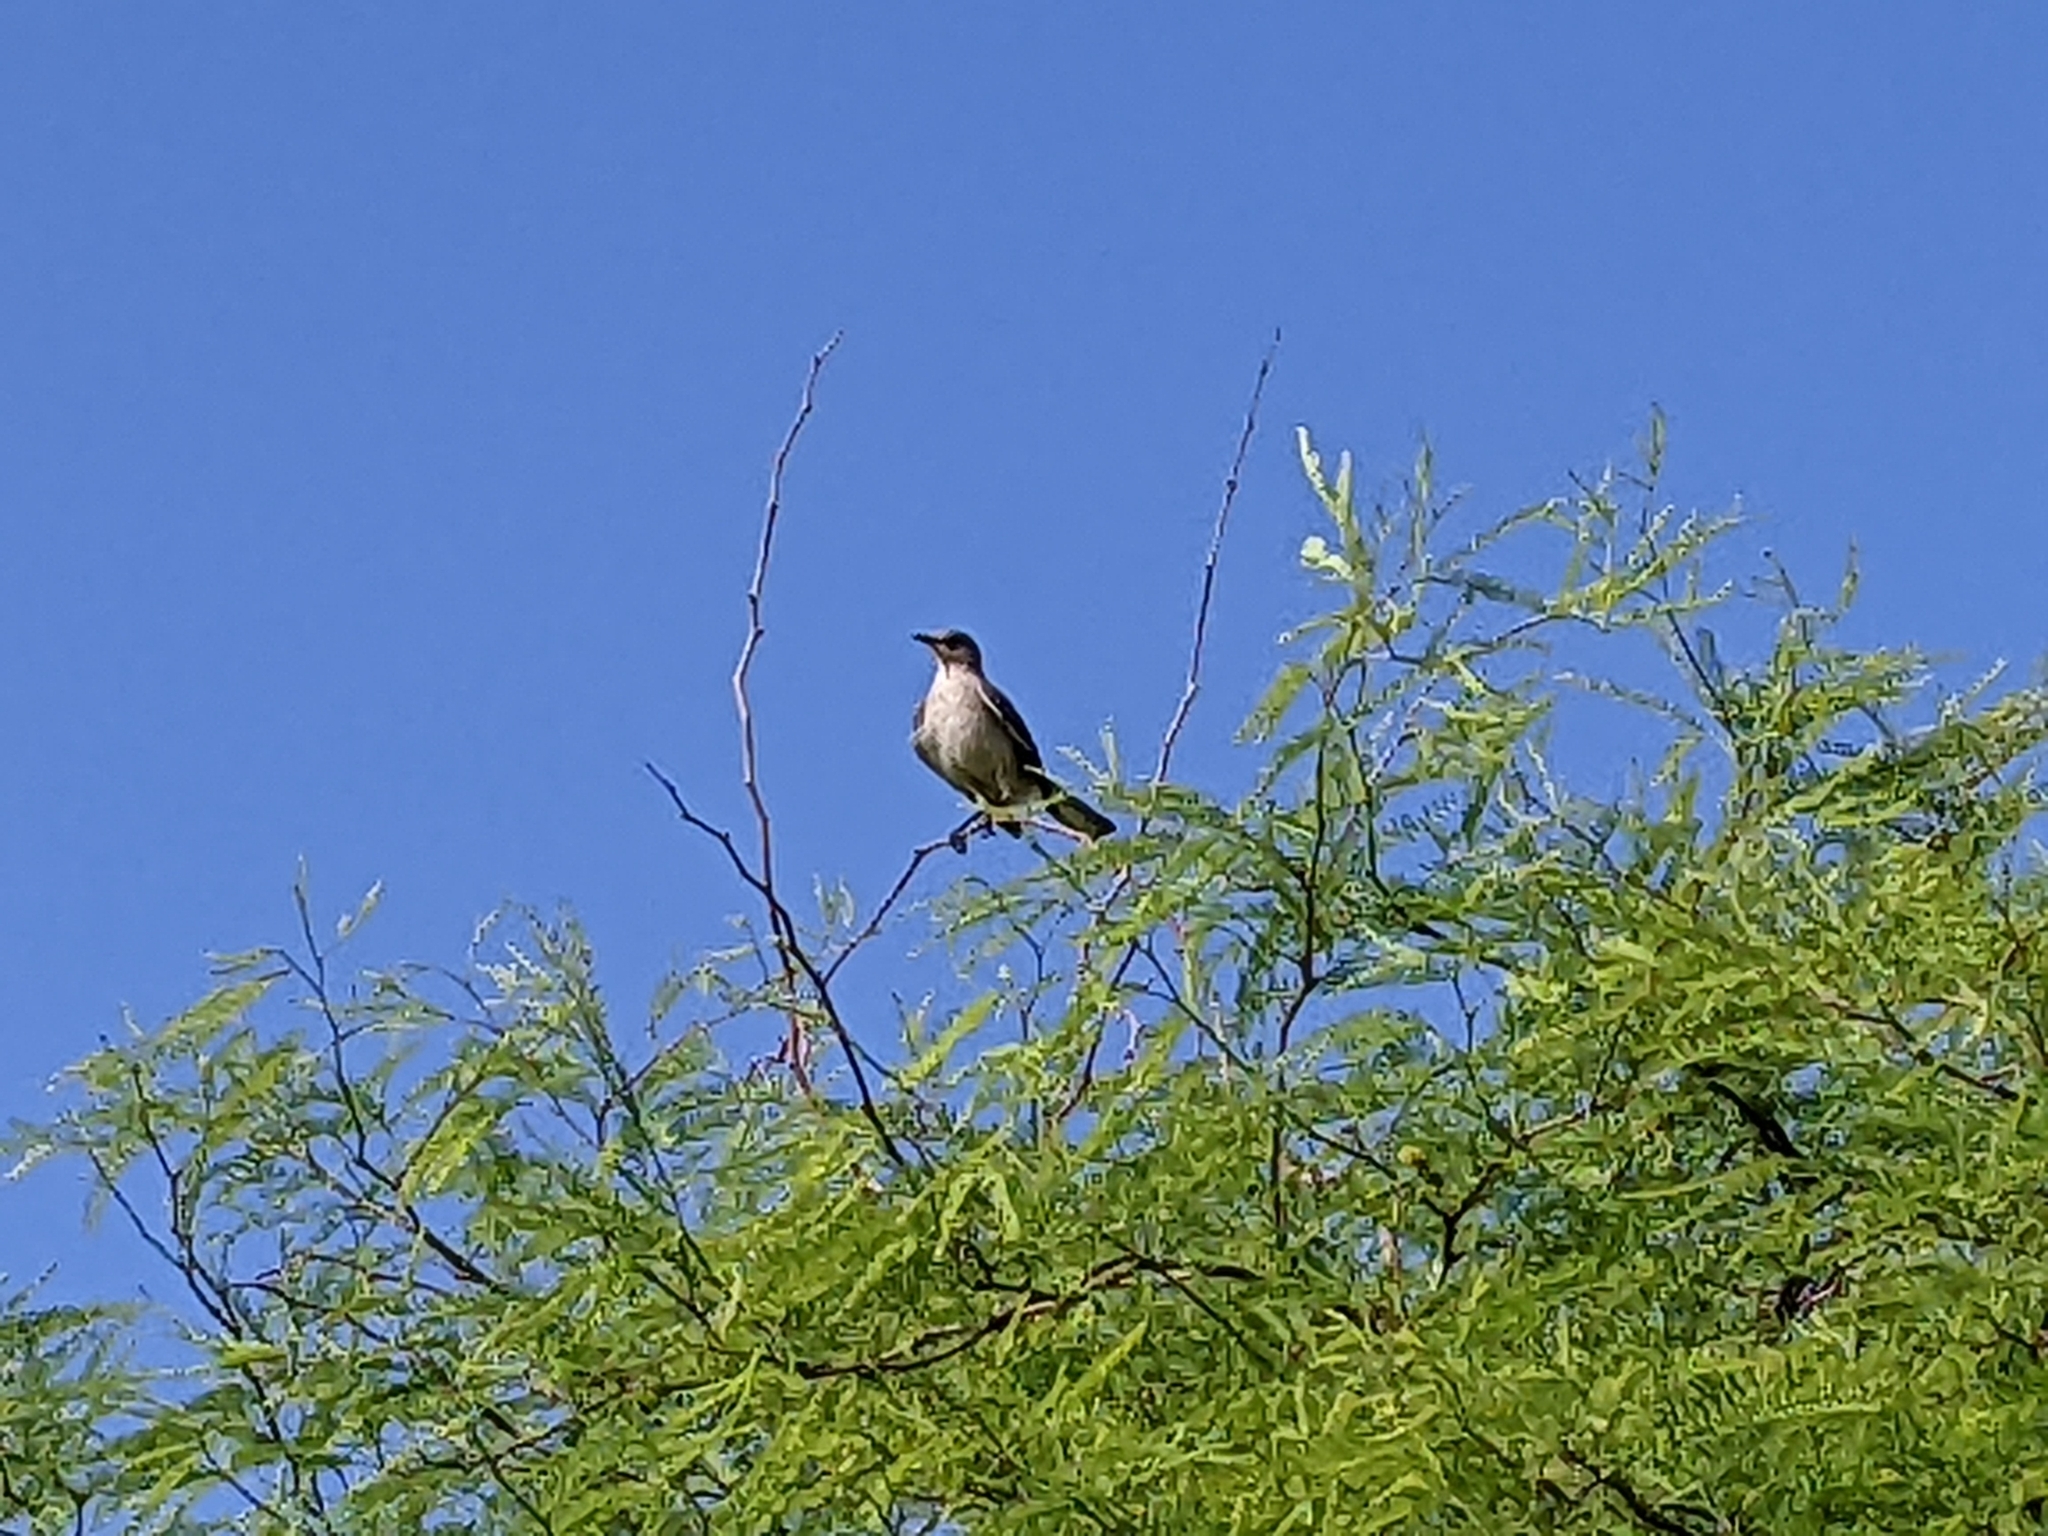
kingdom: Animalia
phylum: Chordata
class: Aves
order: Passeriformes
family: Mimidae
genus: Mimus
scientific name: Mimus polyglottos
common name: Northern mockingbird
